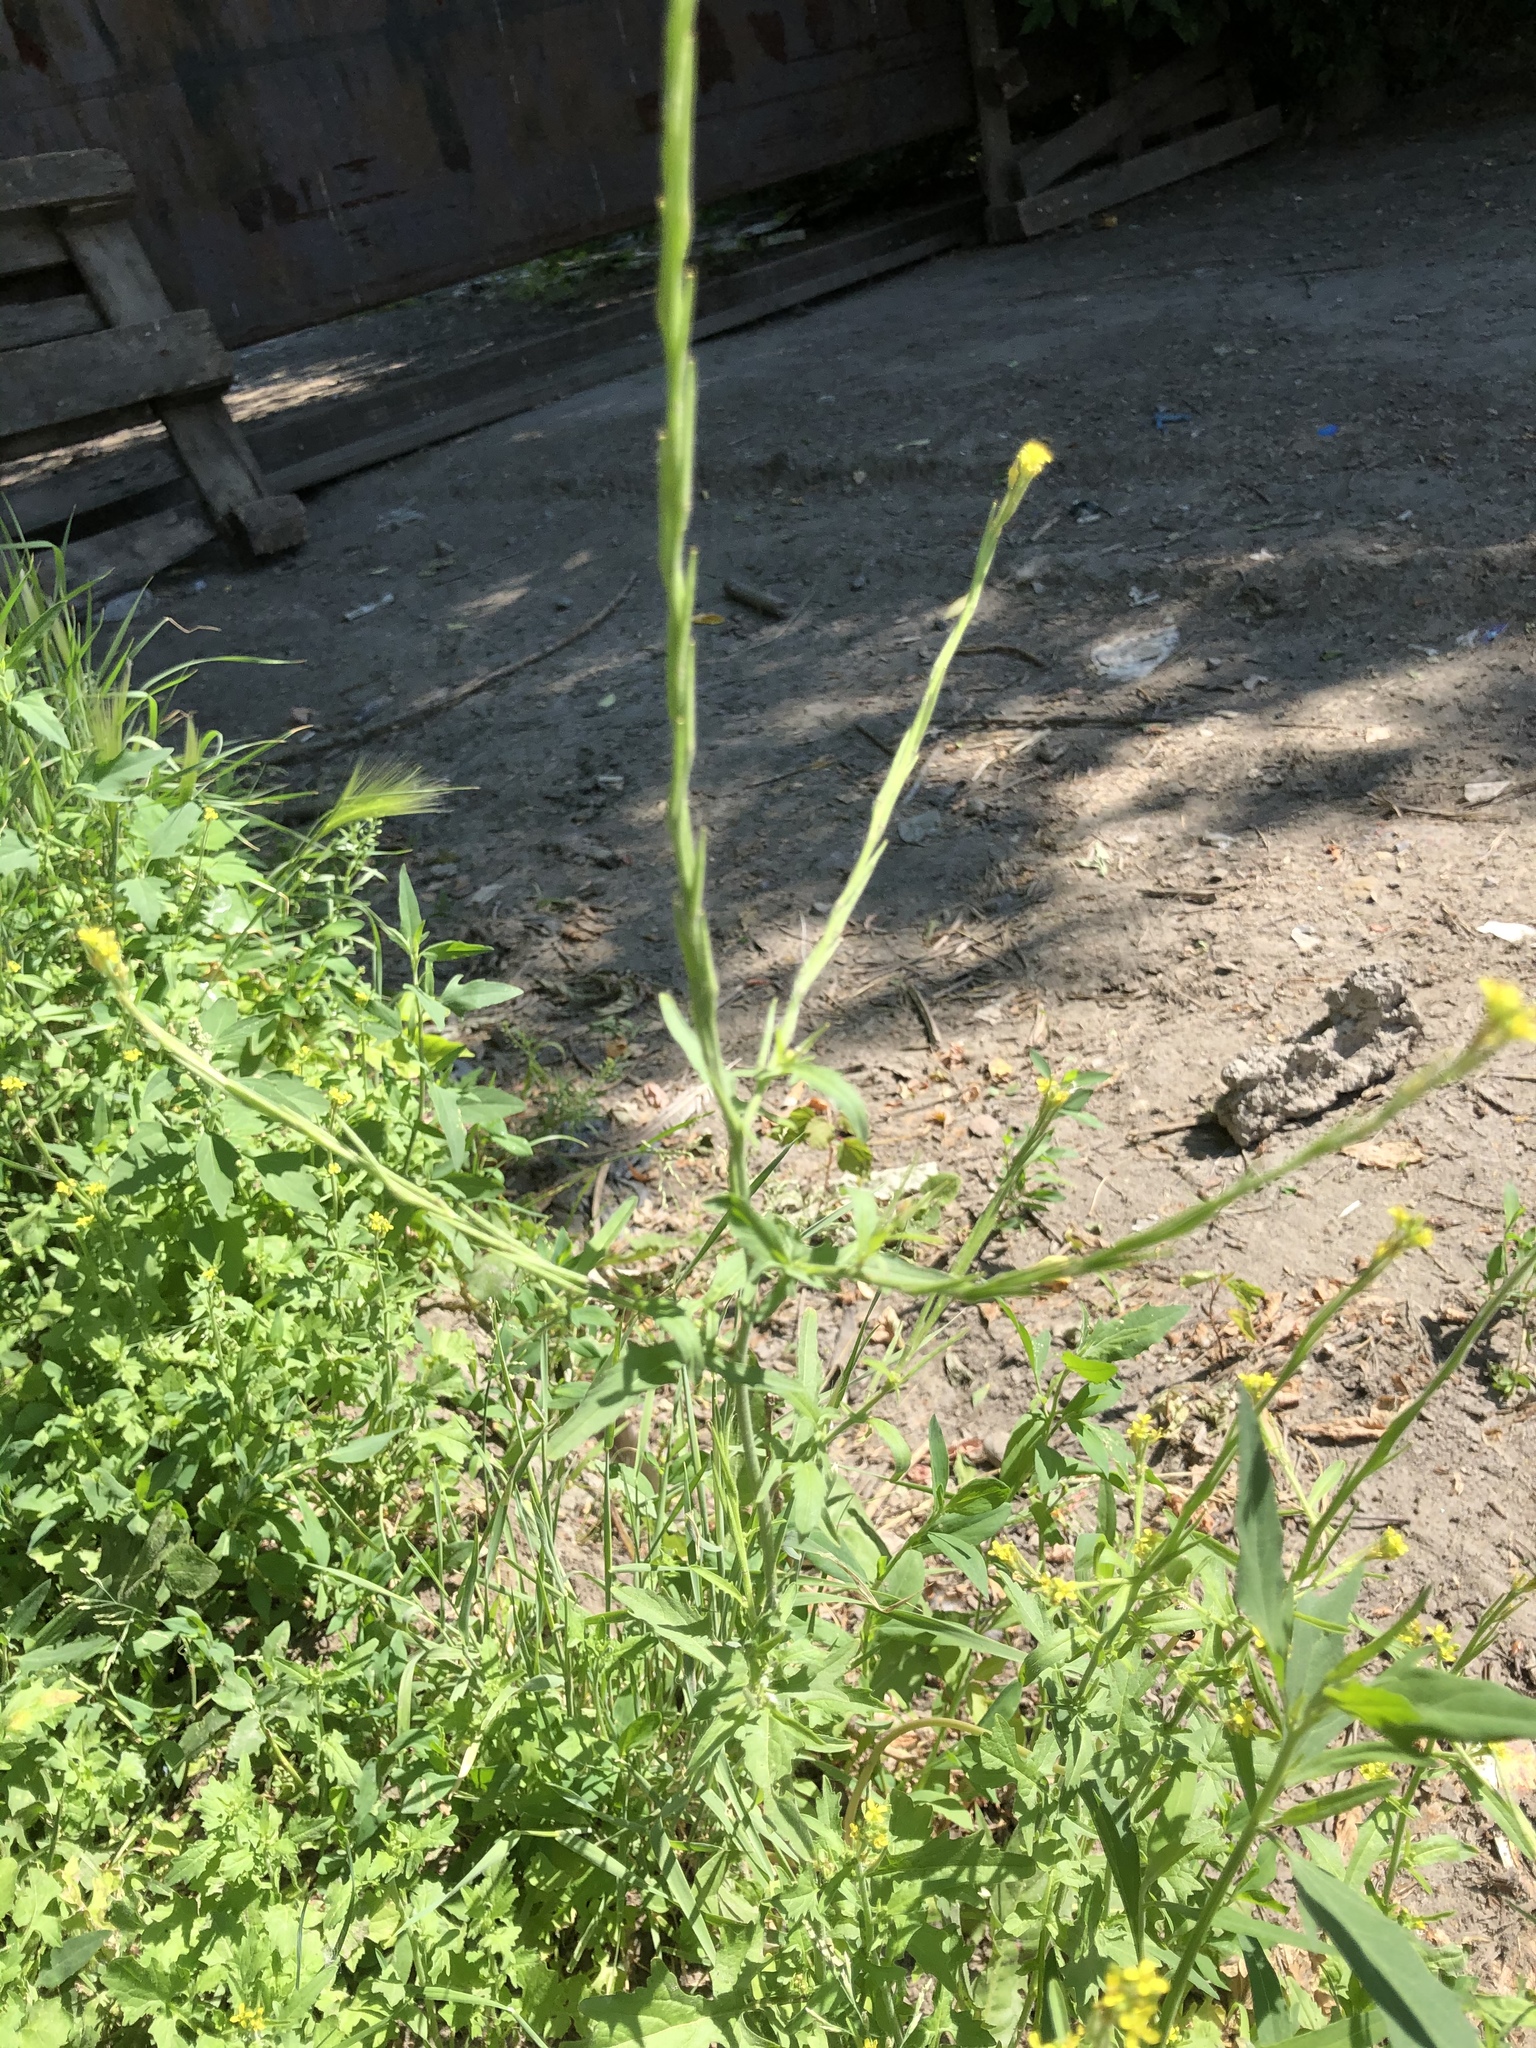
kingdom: Plantae
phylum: Tracheophyta
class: Magnoliopsida
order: Brassicales
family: Brassicaceae
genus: Sisymbrium
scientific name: Sisymbrium officinale
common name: Hedge mustard
